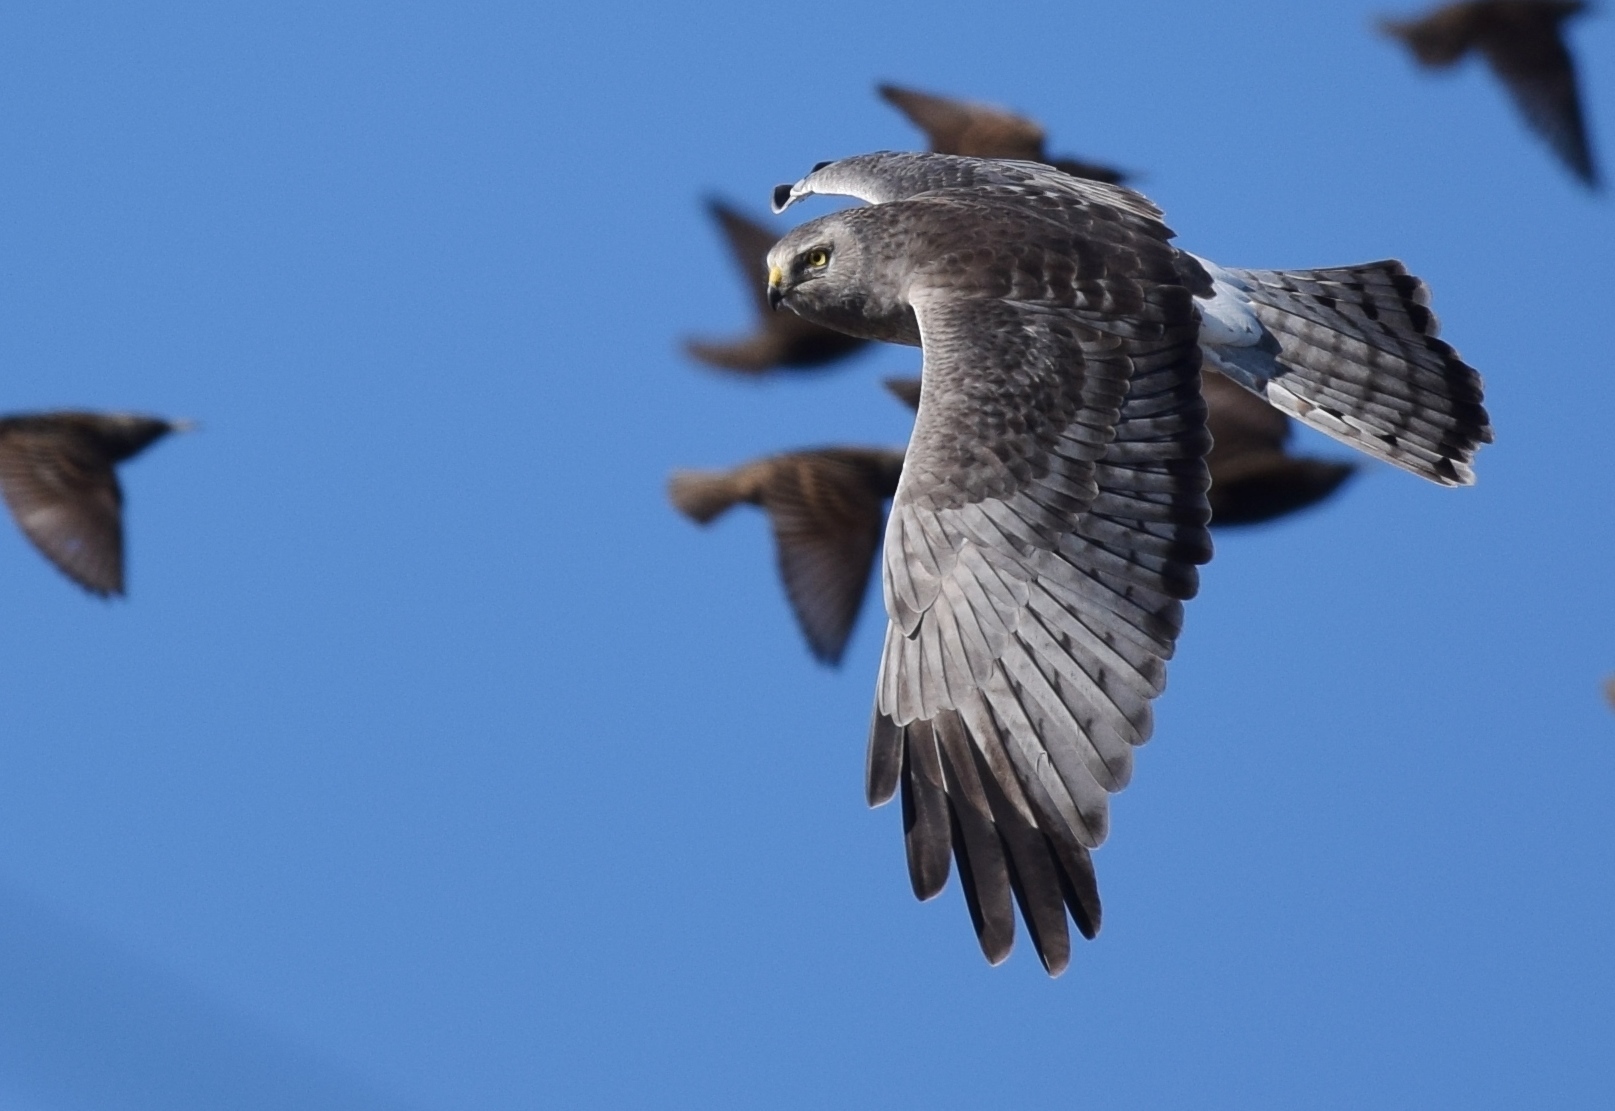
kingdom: Animalia
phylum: Chordata
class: Aves
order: Accipitriformes
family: Accipitridae
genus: Circus
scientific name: Circus cyaneus
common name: Hen harrier
